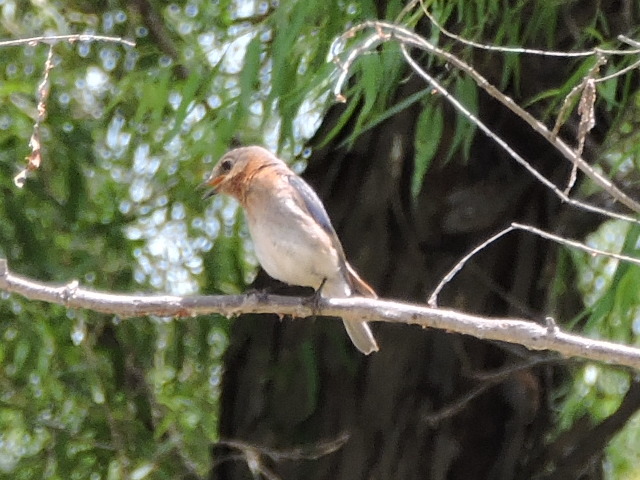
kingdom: Animalia
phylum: Chordata
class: Aves
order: Passeriformes
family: Turdidae
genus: Sialia
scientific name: Sialia sialis
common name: Eastern bluebird
